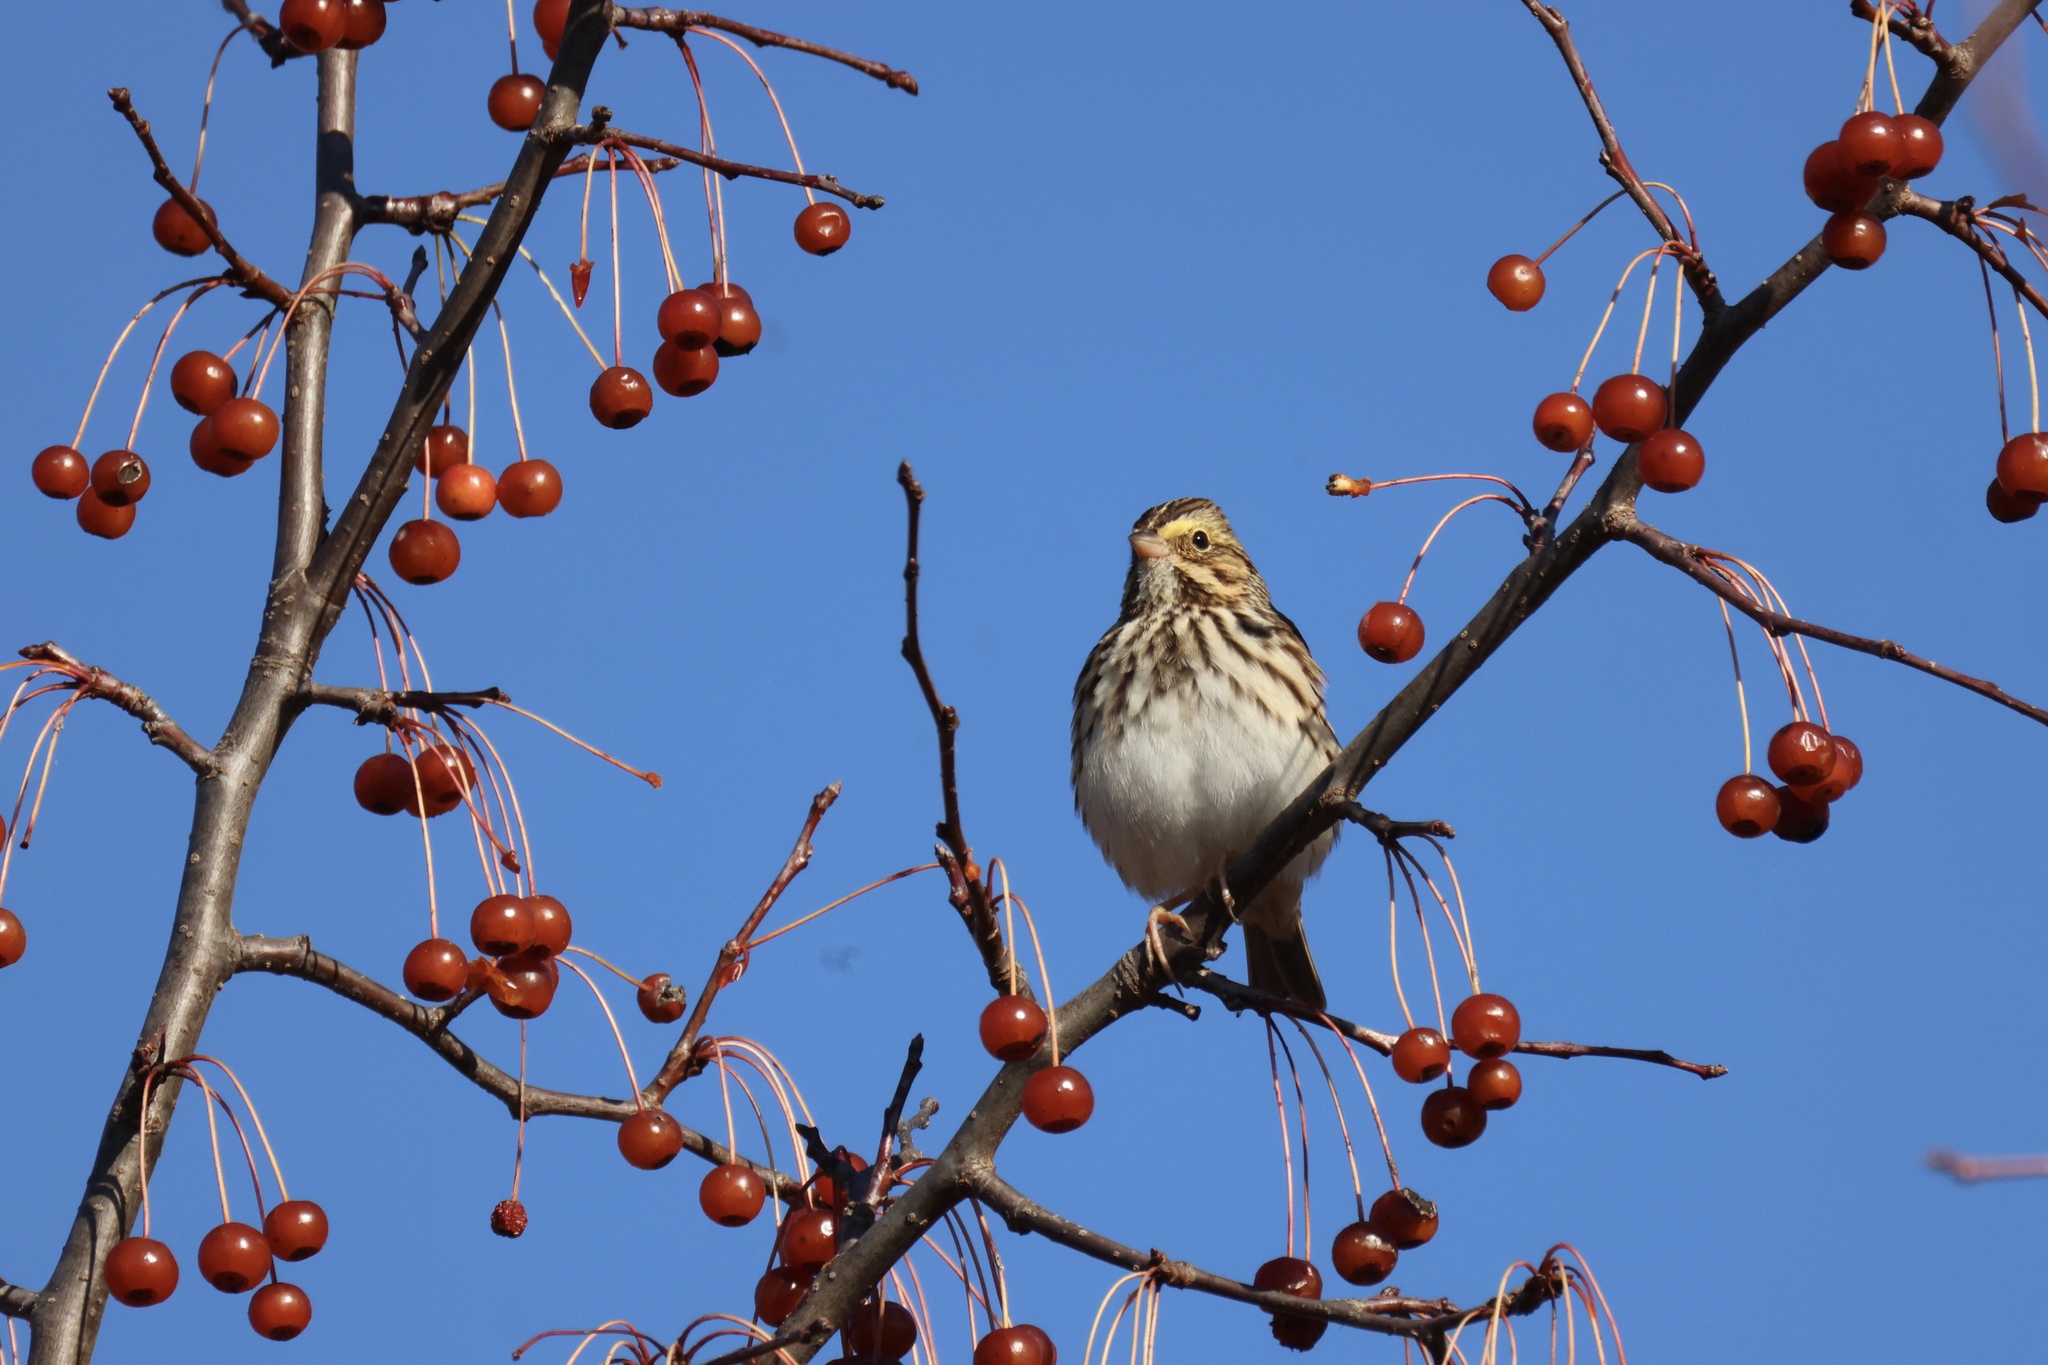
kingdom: Animalia
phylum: Chordata
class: Aves
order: Passeriformes
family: Passerellidae
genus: Passerculus
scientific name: Passerculus sandwichensis
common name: Savannah sparrow
